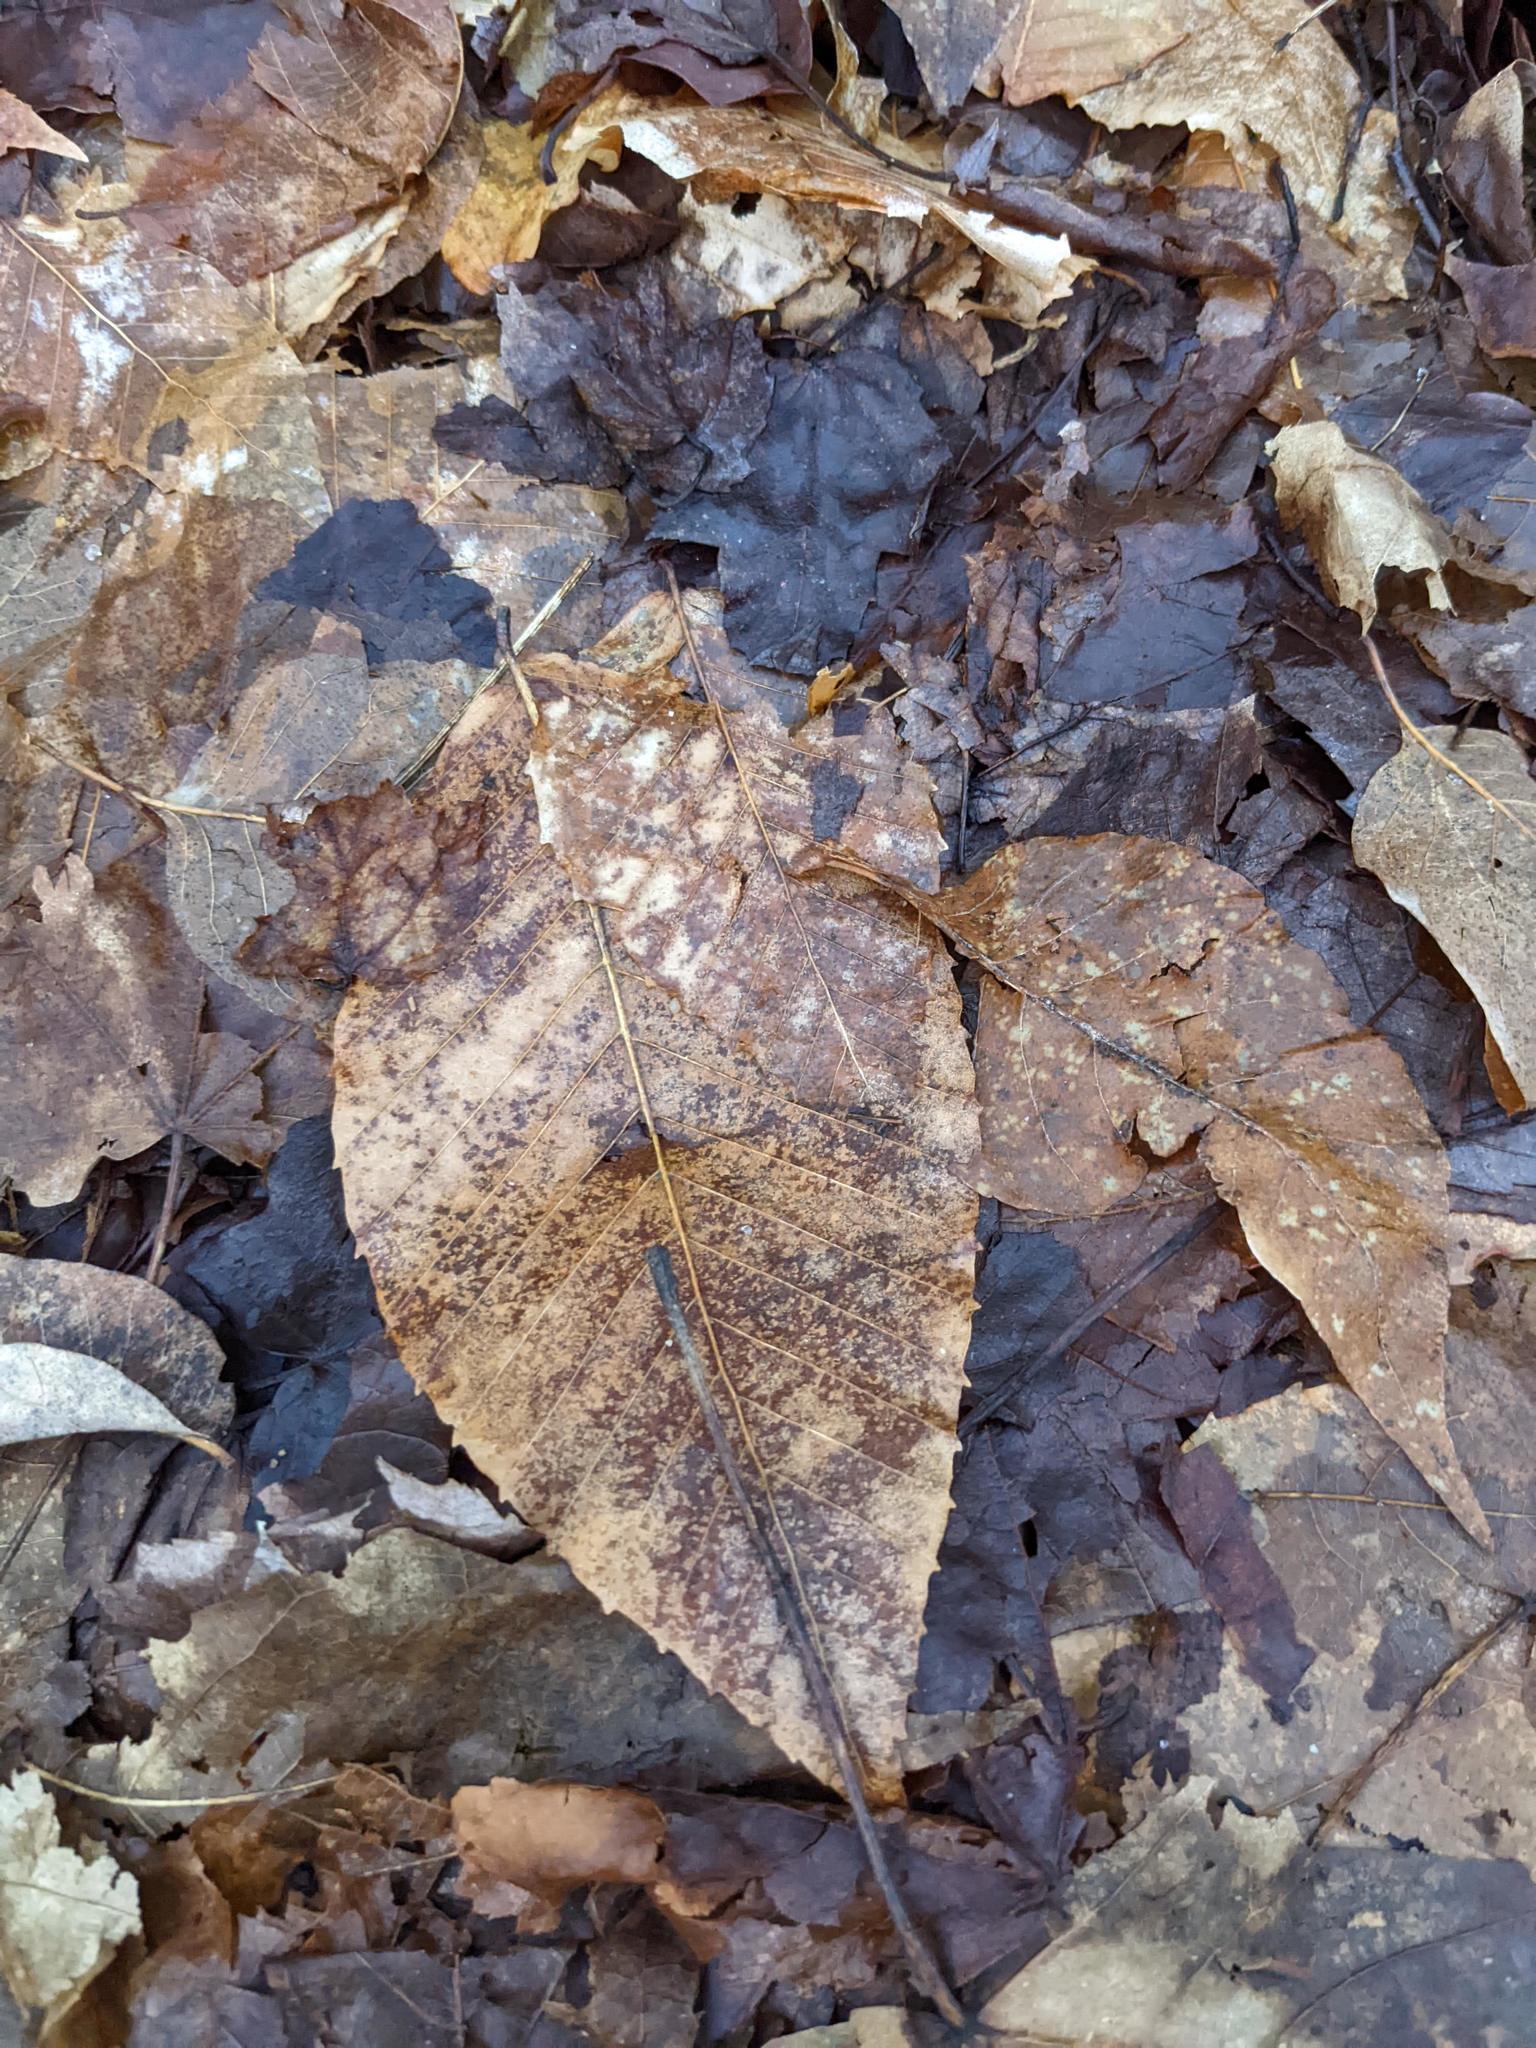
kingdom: Plantae
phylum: Tracheophyta
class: Magnoliopsida
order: Fagales
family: Fagaceae
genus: Fagus
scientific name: Fagus grandifolia
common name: American beech
